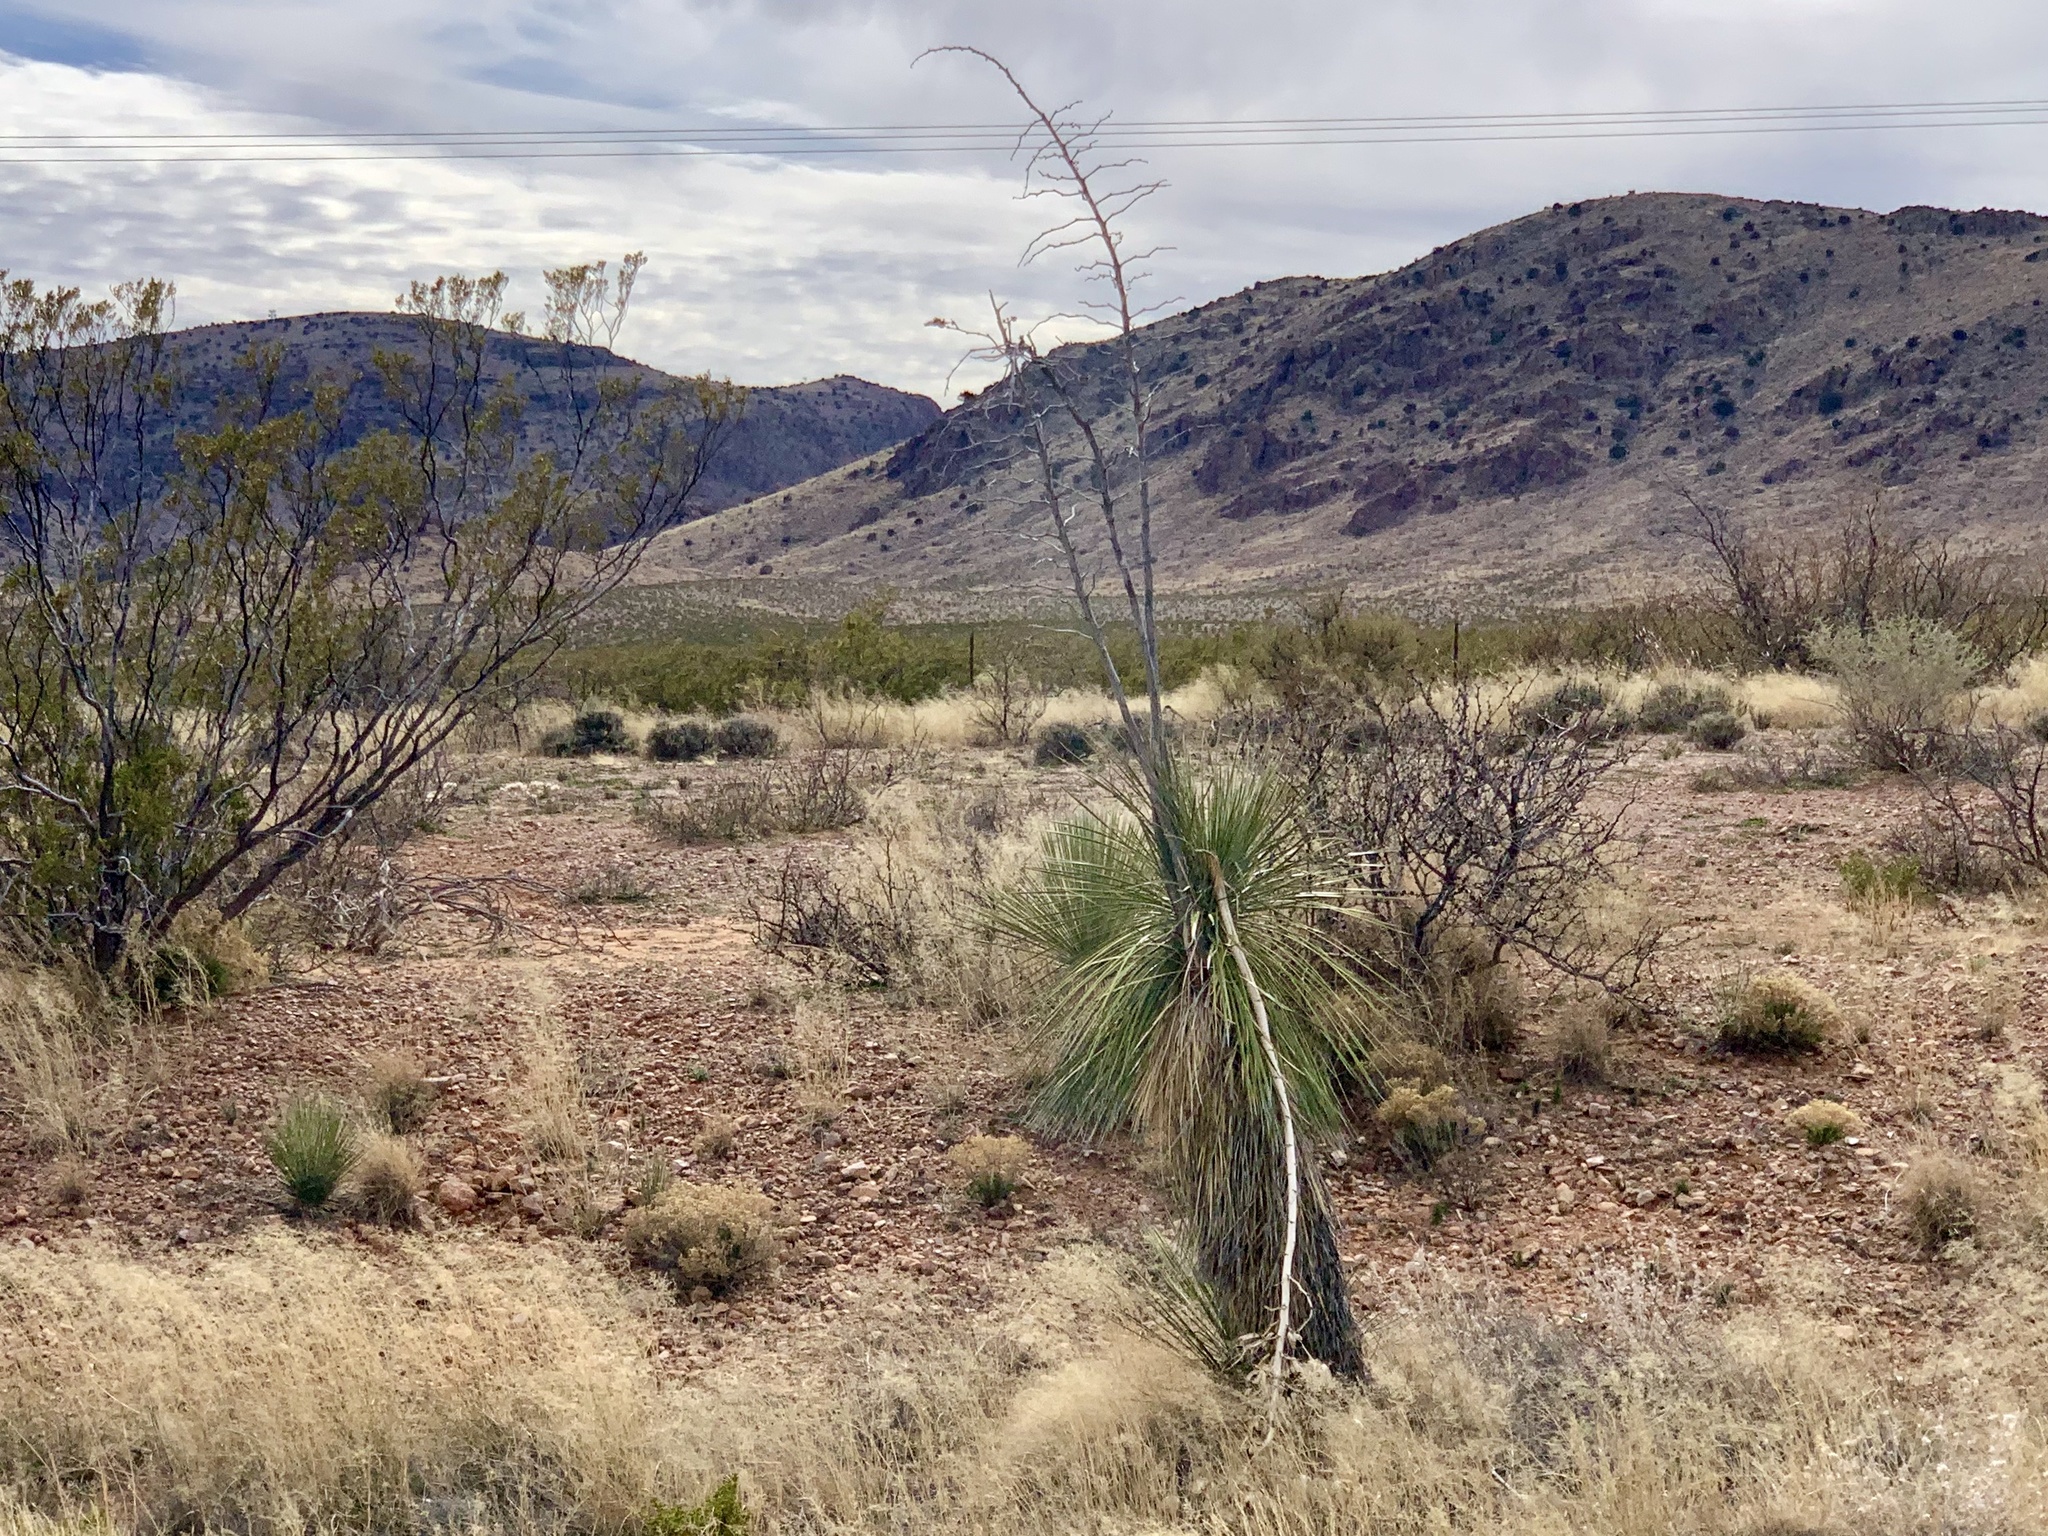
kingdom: Plantae
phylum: Tracheophyta
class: Liliopsida
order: Asparagales
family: Asparagaceae
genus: Yucca
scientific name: Yucca elata
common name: Palmella
